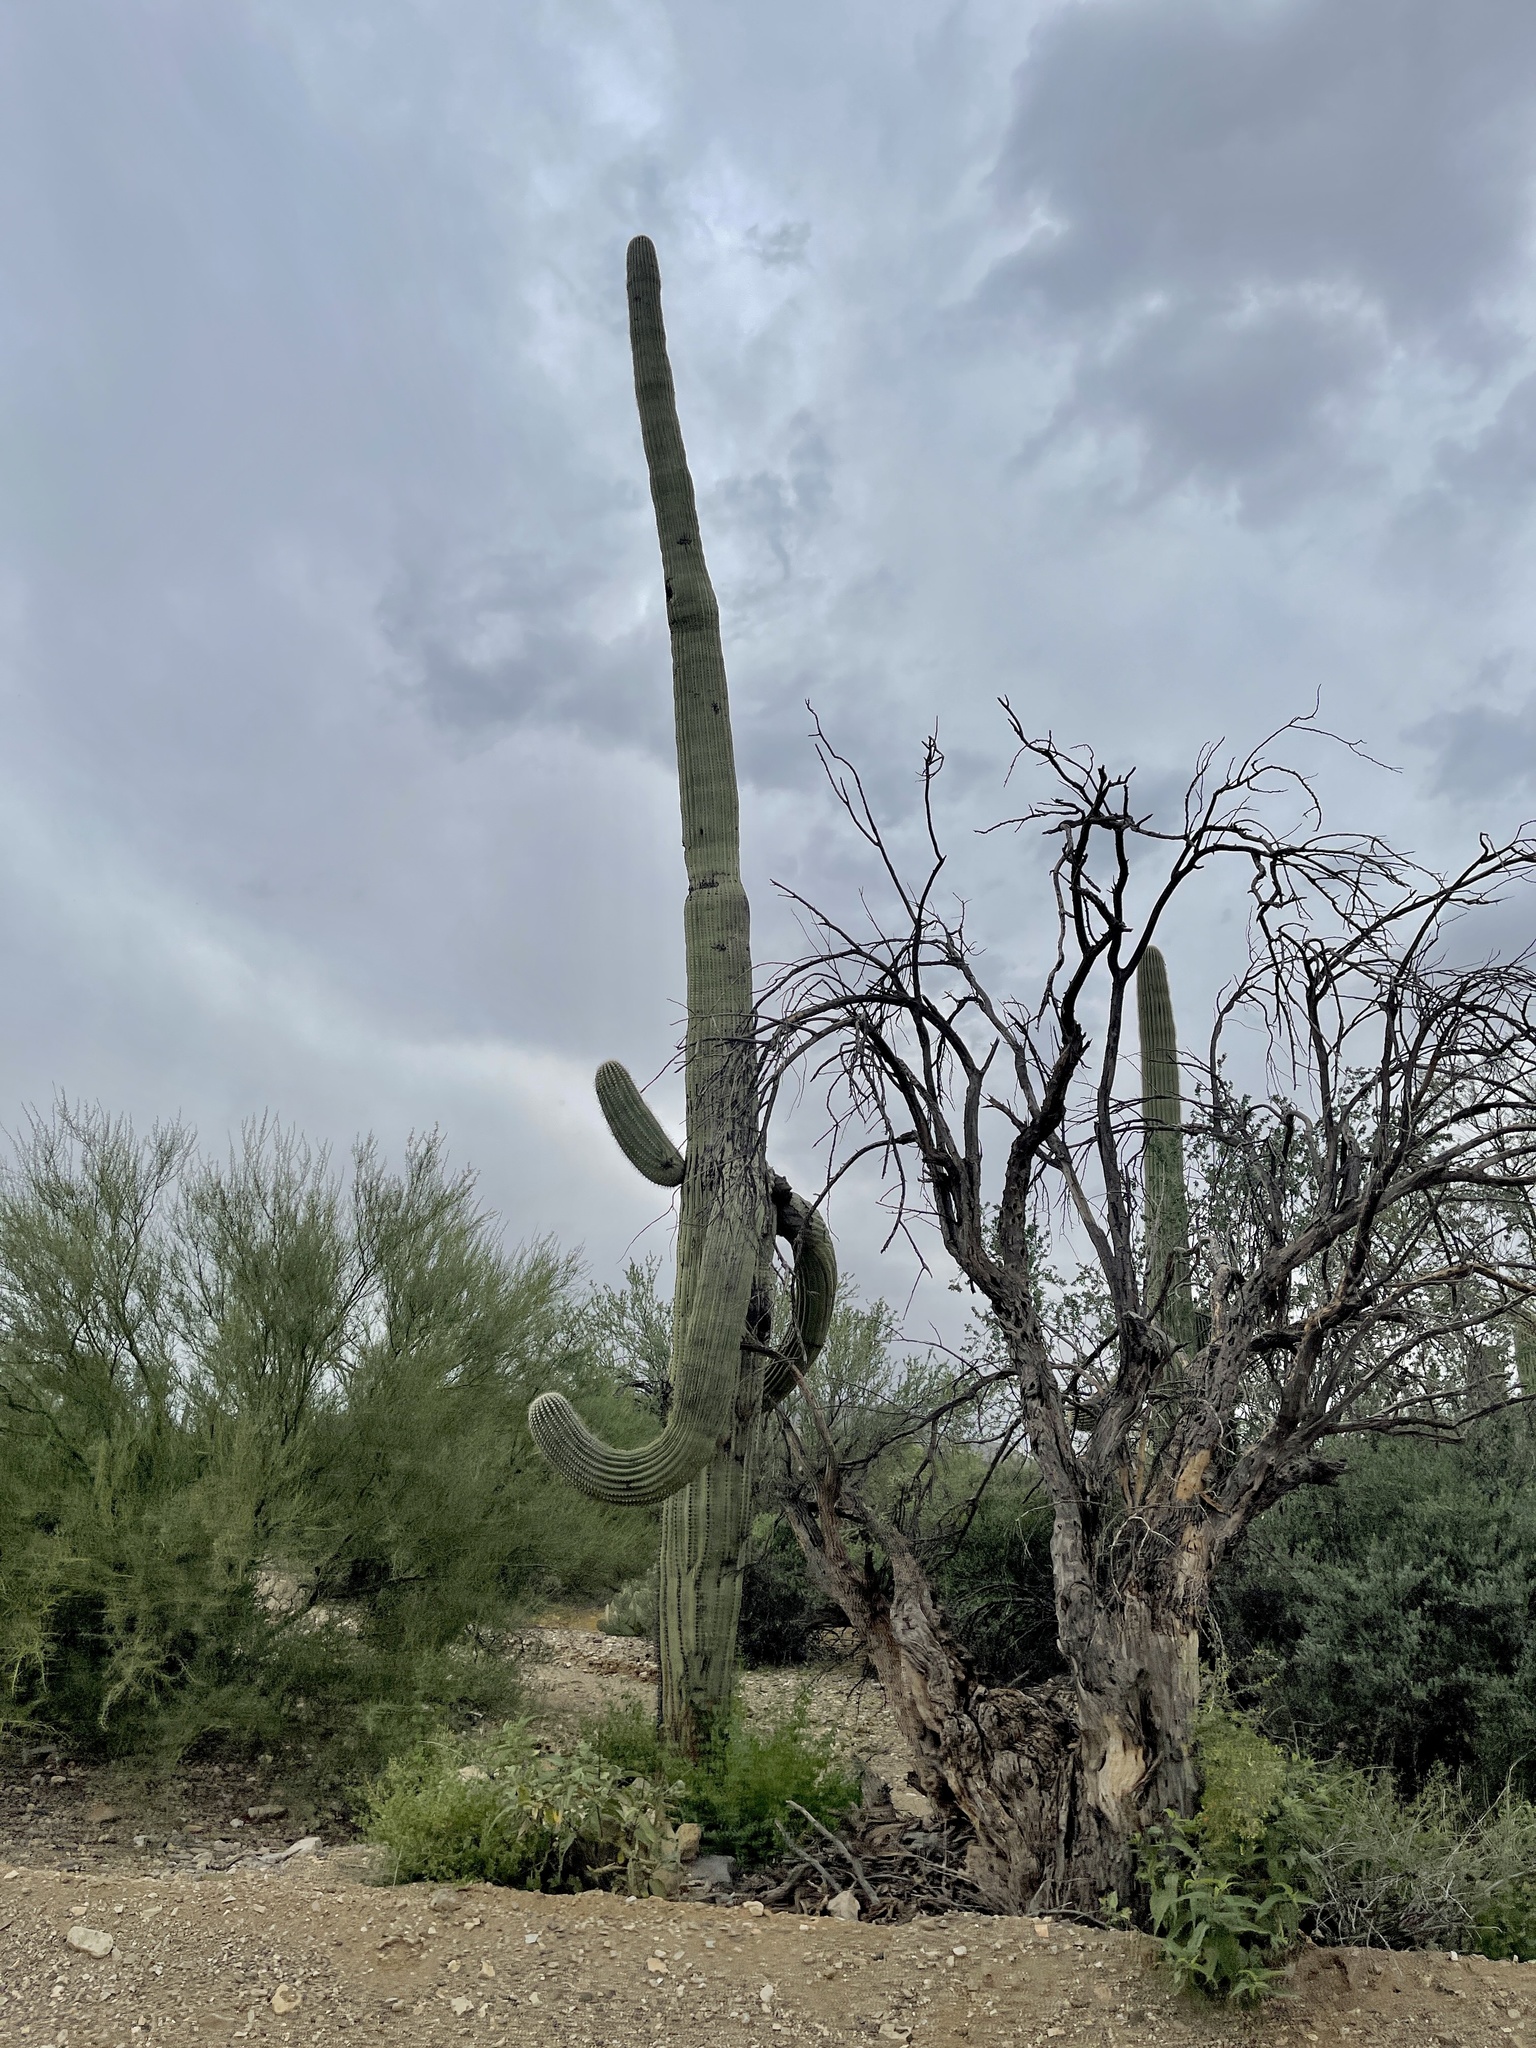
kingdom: Plantae
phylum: Tracheophyta
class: Magnoliopsida
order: Caryophyllales
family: Cactaceae
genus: Carnegiea
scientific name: Carnegiea gigantea
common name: Saguaro
